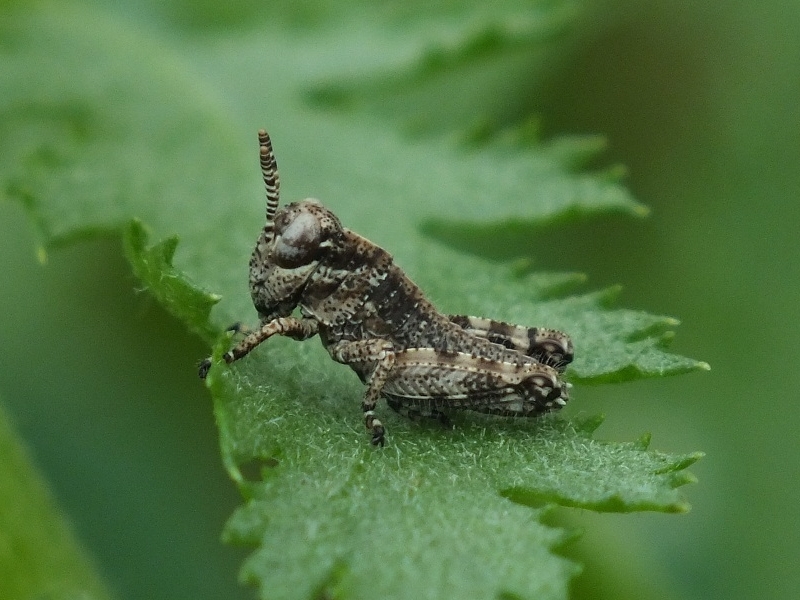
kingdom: Animalia
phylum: Arthropoda
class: Insecta
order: Orthoptera
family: Acrididae
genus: Podisma
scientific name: Podisma pedestris
